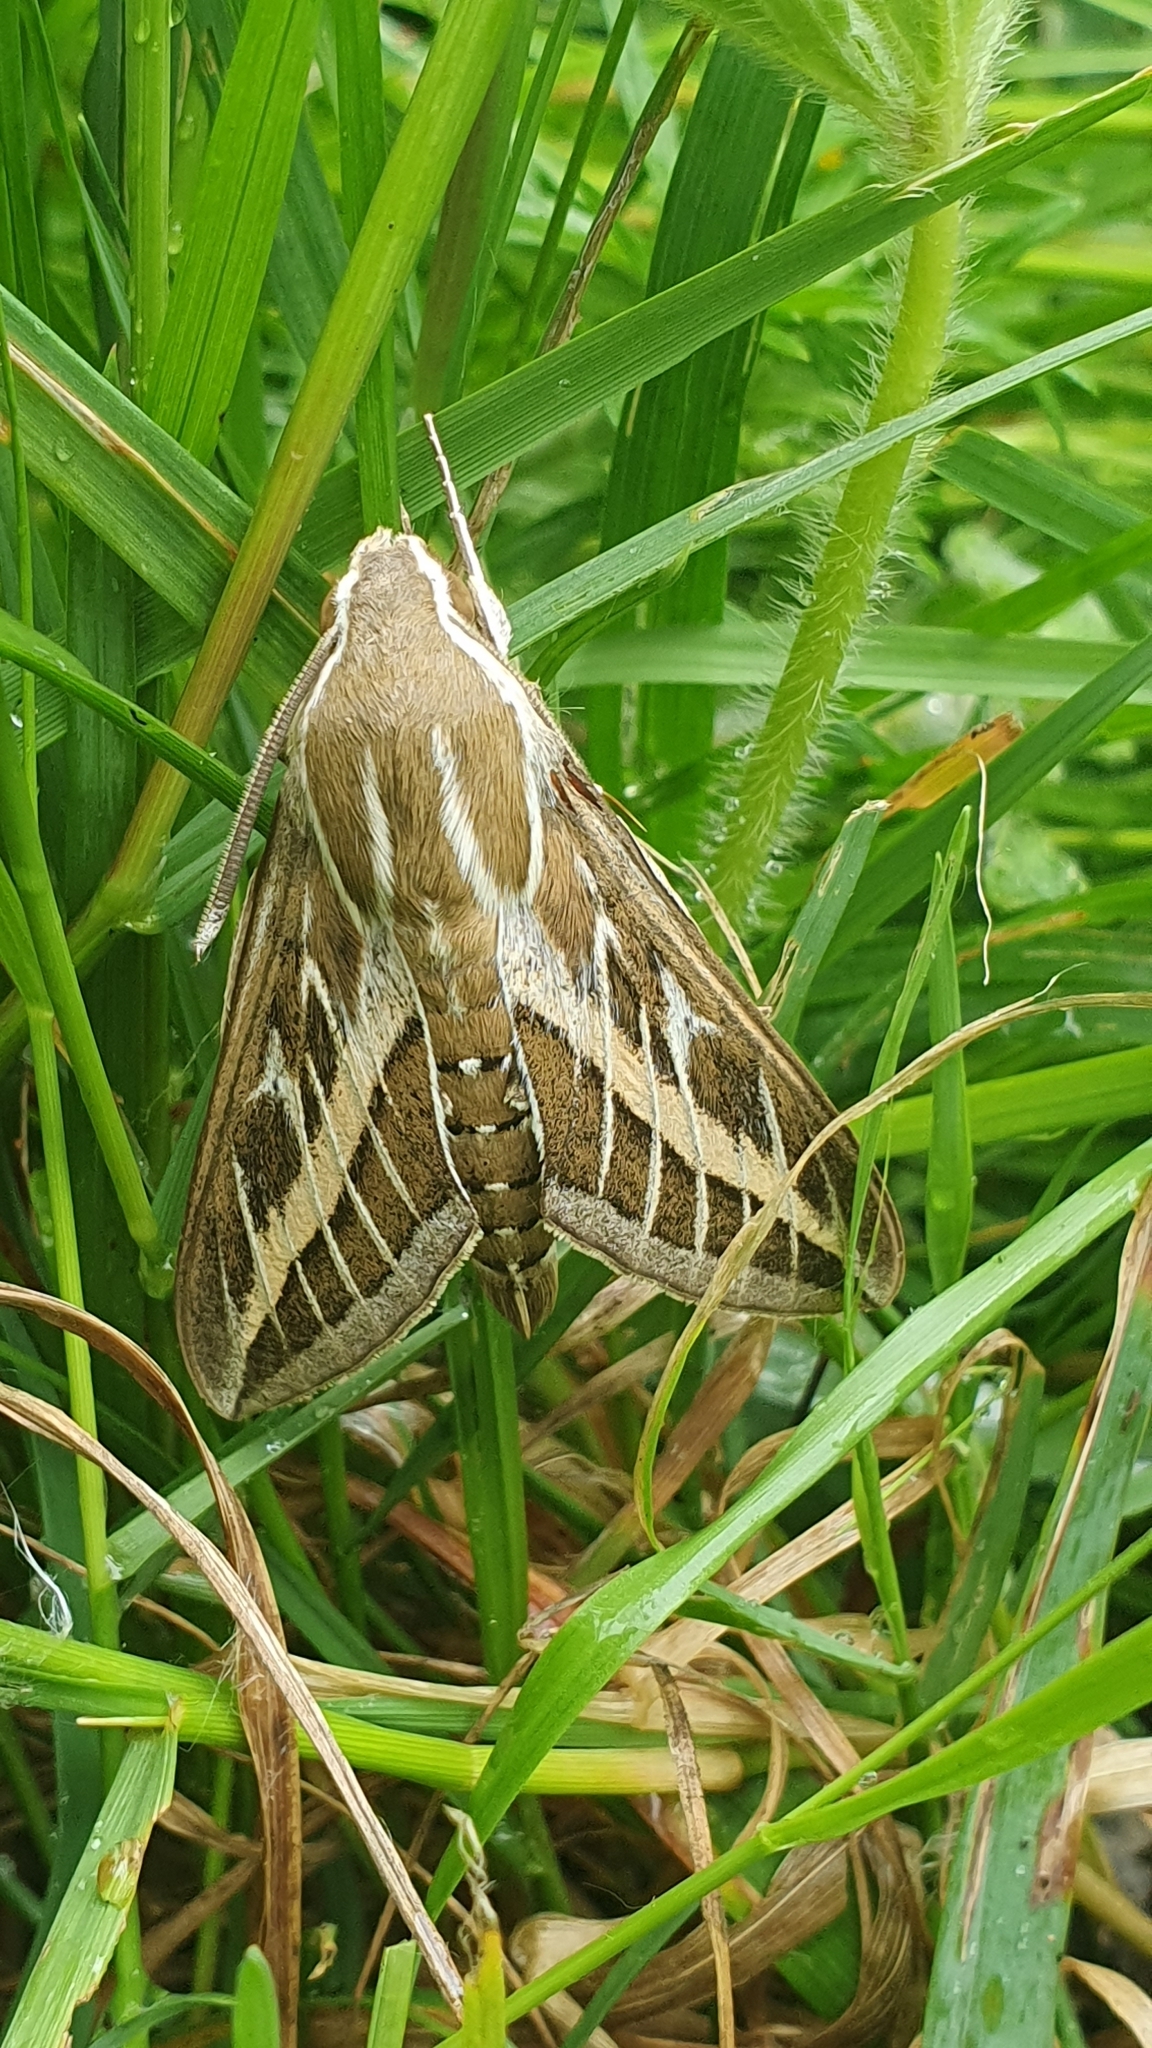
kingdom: Animalia
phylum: Arthropoda
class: Insecta
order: Lepidoptera
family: Sphingidae
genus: Hyles
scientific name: Hyles livornica
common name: Striped hawk-moth
